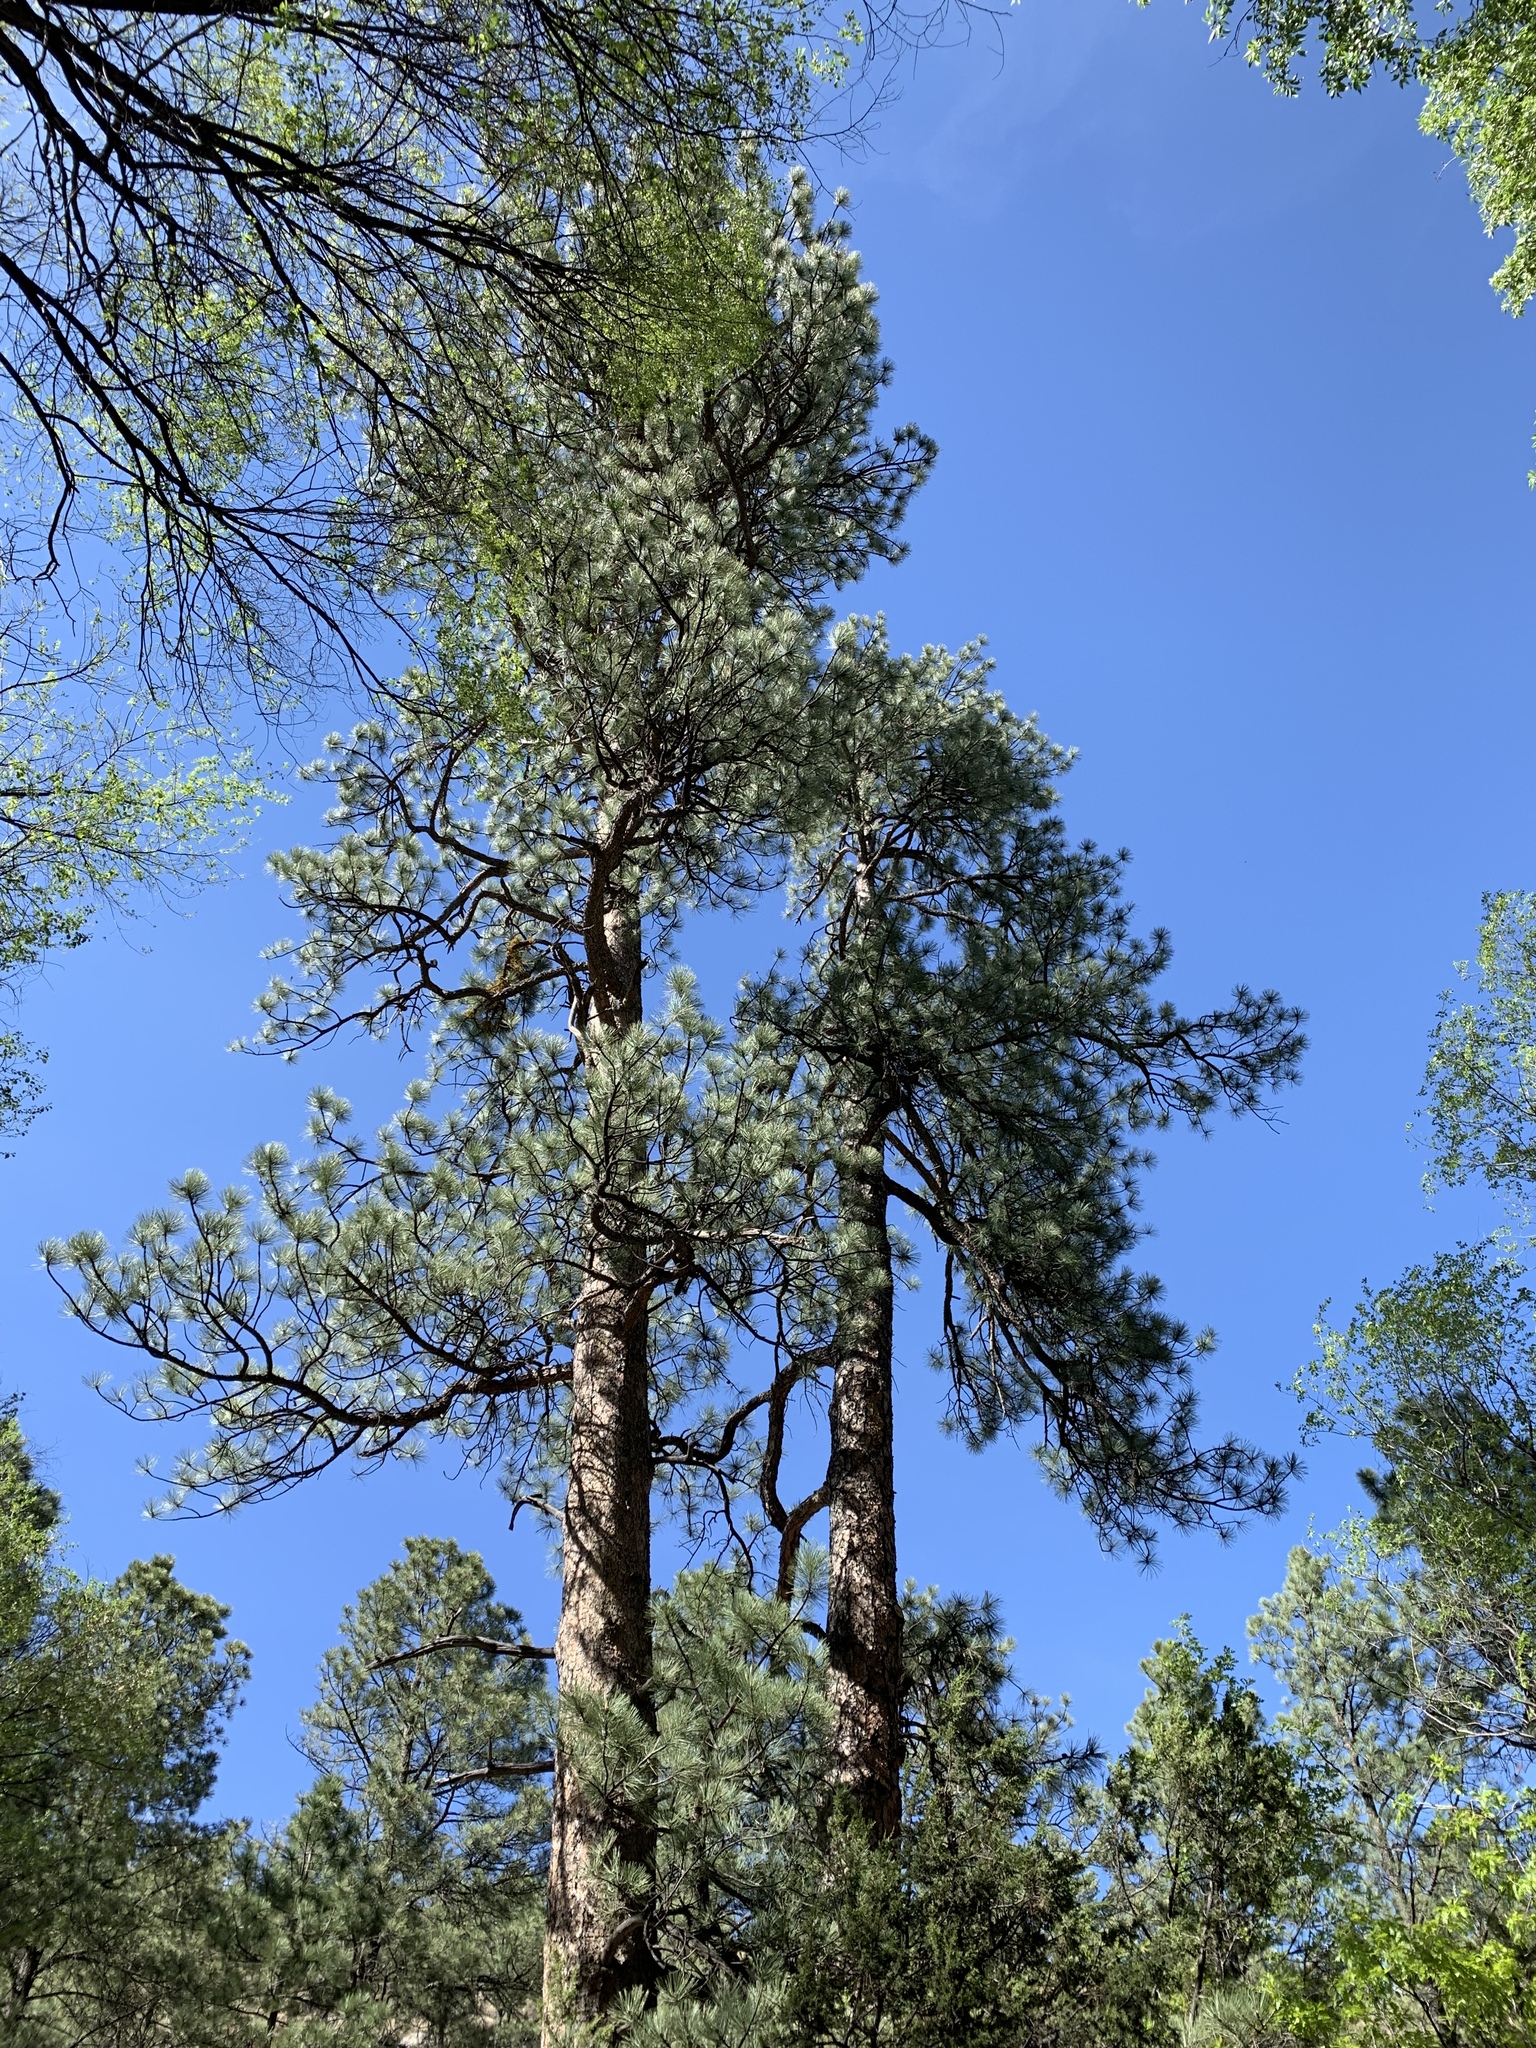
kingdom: Plantae
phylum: Tracheophyta
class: Pinopsida
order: Pinales
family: Pinaceae
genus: Pinus
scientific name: Pinus ponderosa
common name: Western yellow-pine
